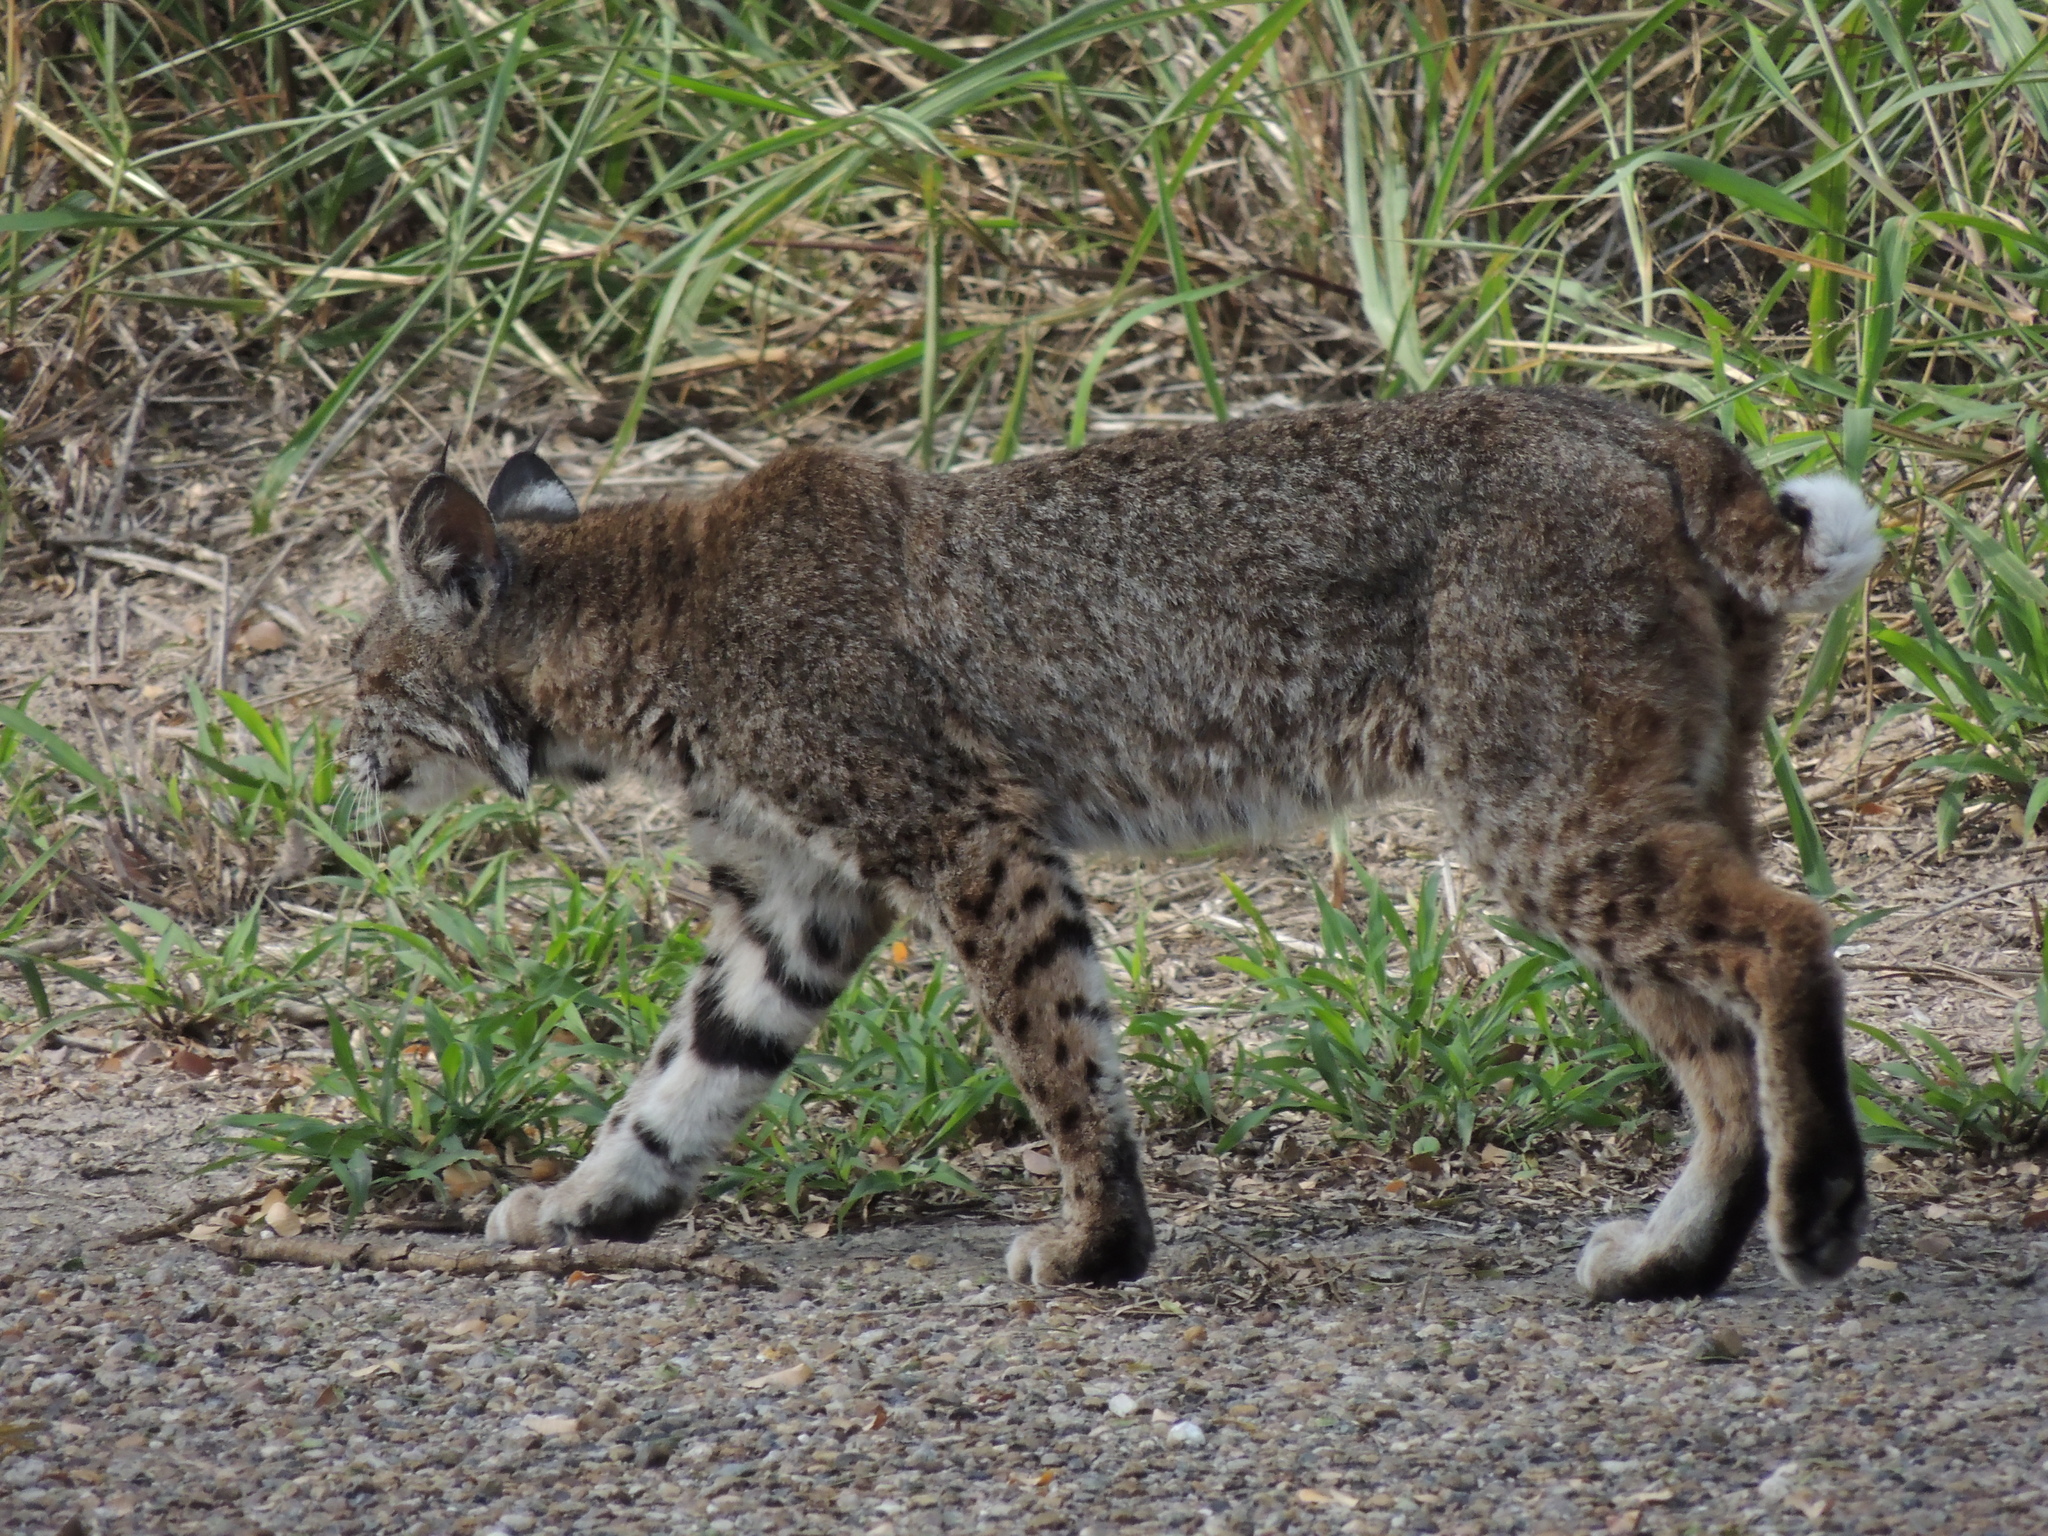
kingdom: Animalia
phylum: Chordata
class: Mammalia
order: Carnivora
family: Felidae
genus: Lynx
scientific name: Lynx rufus
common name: Bobcat
